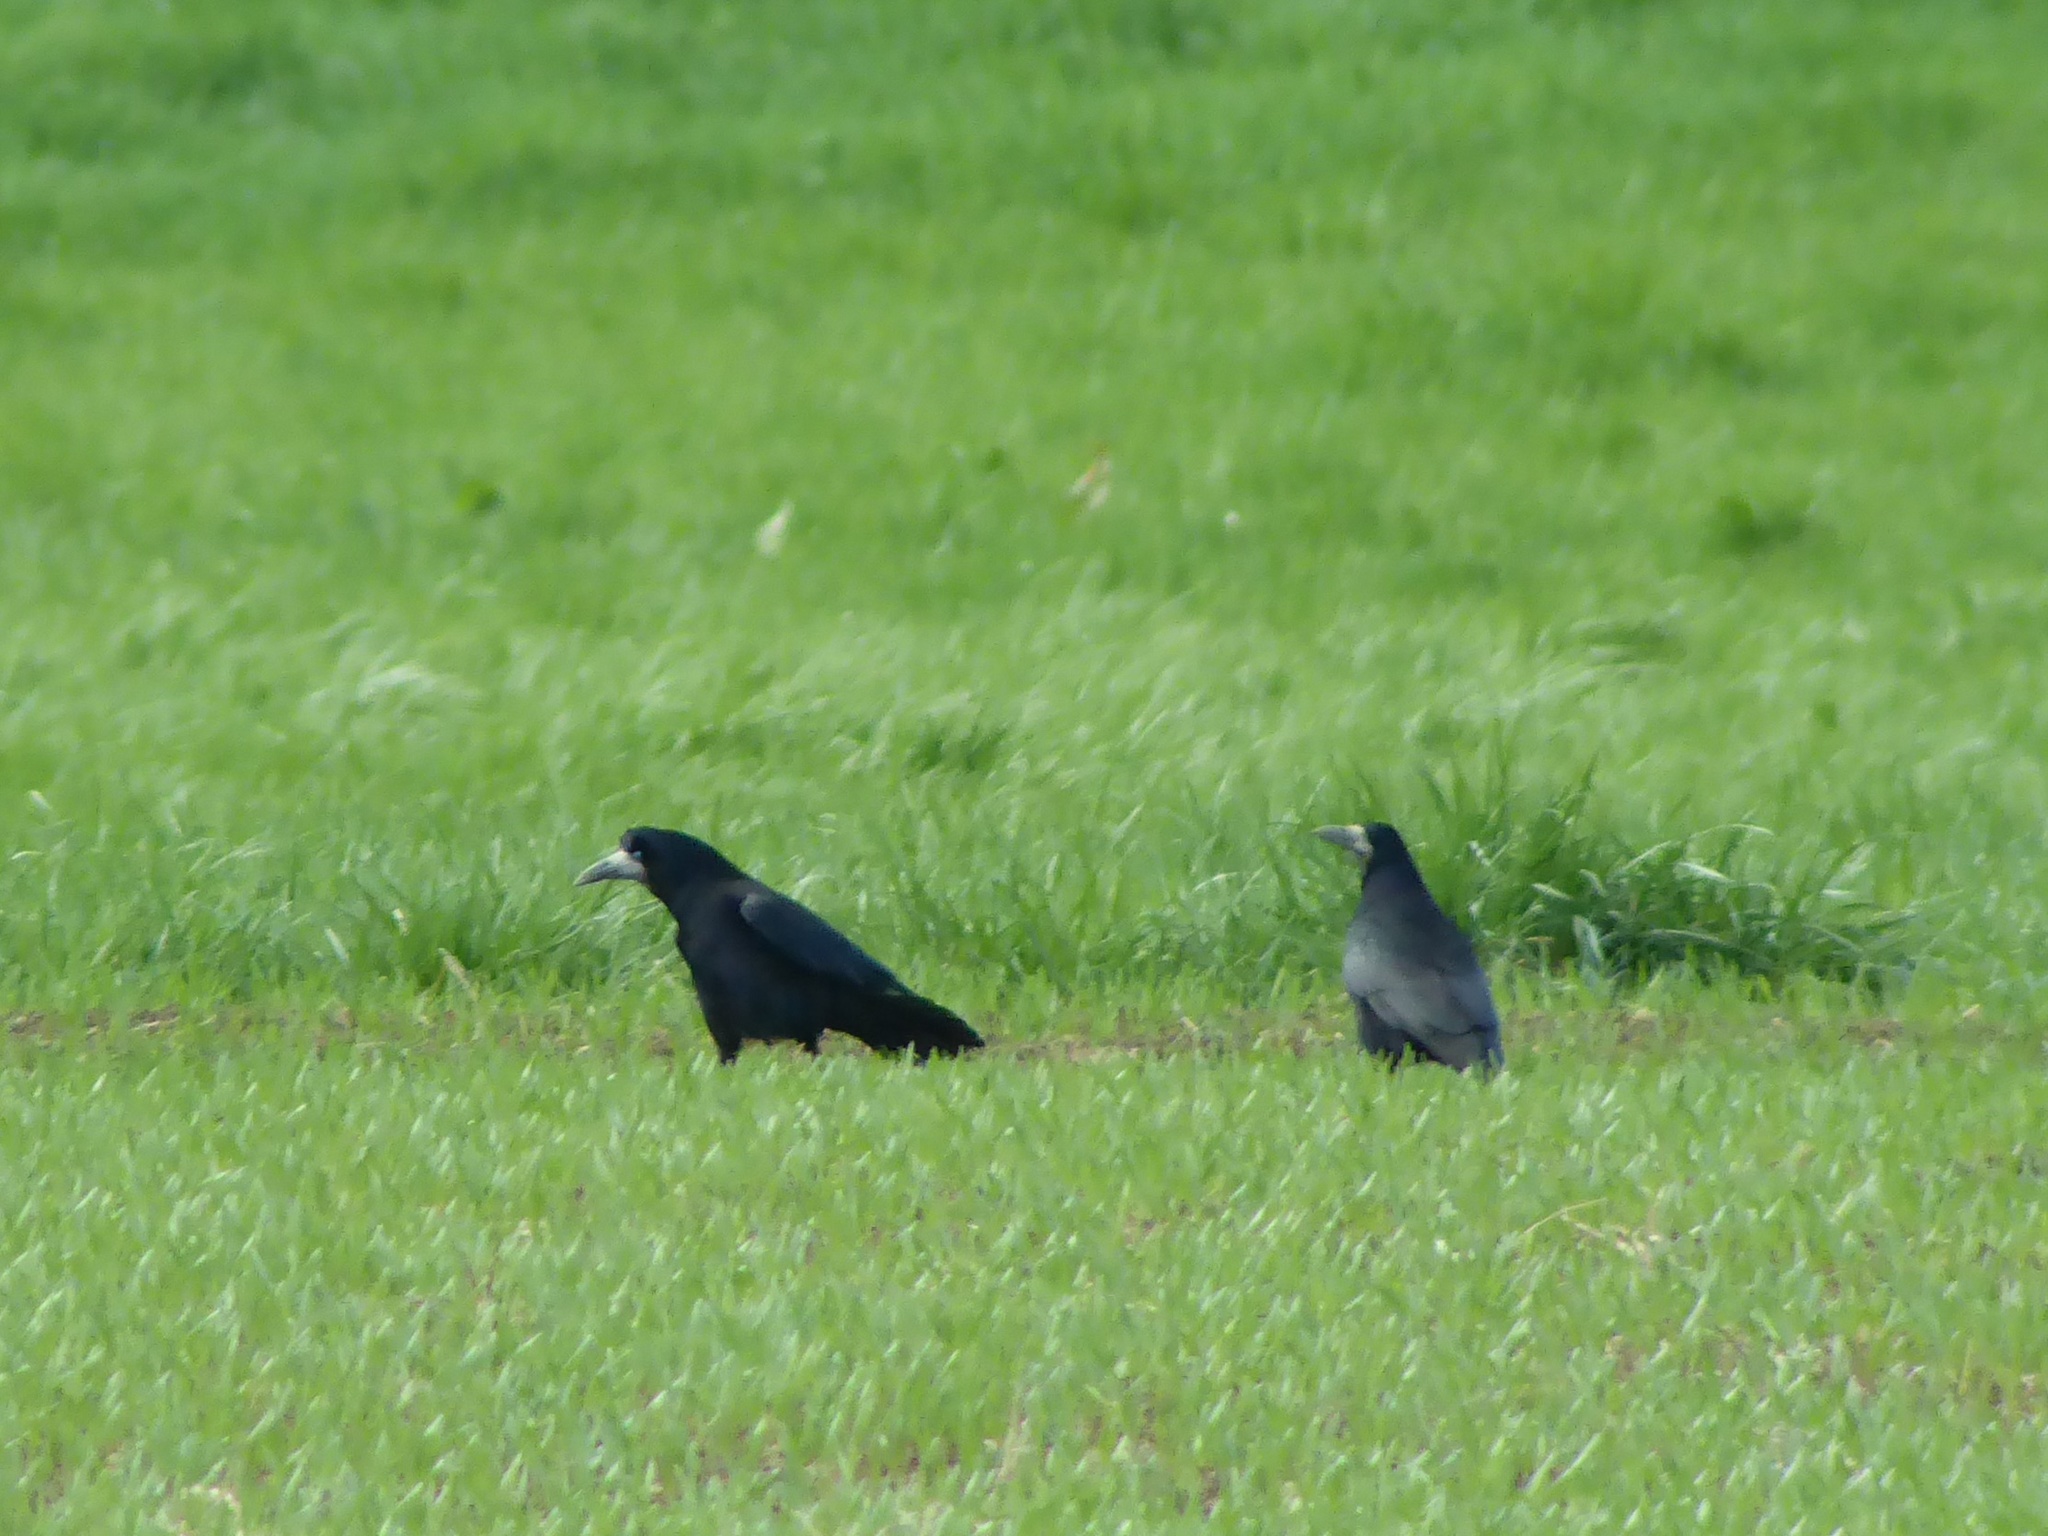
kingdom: Animalia
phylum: Chordata
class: Aves
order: Passeriformes
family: Corvidae
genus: Corvus
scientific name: Corvus frugilegus
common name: Rook
